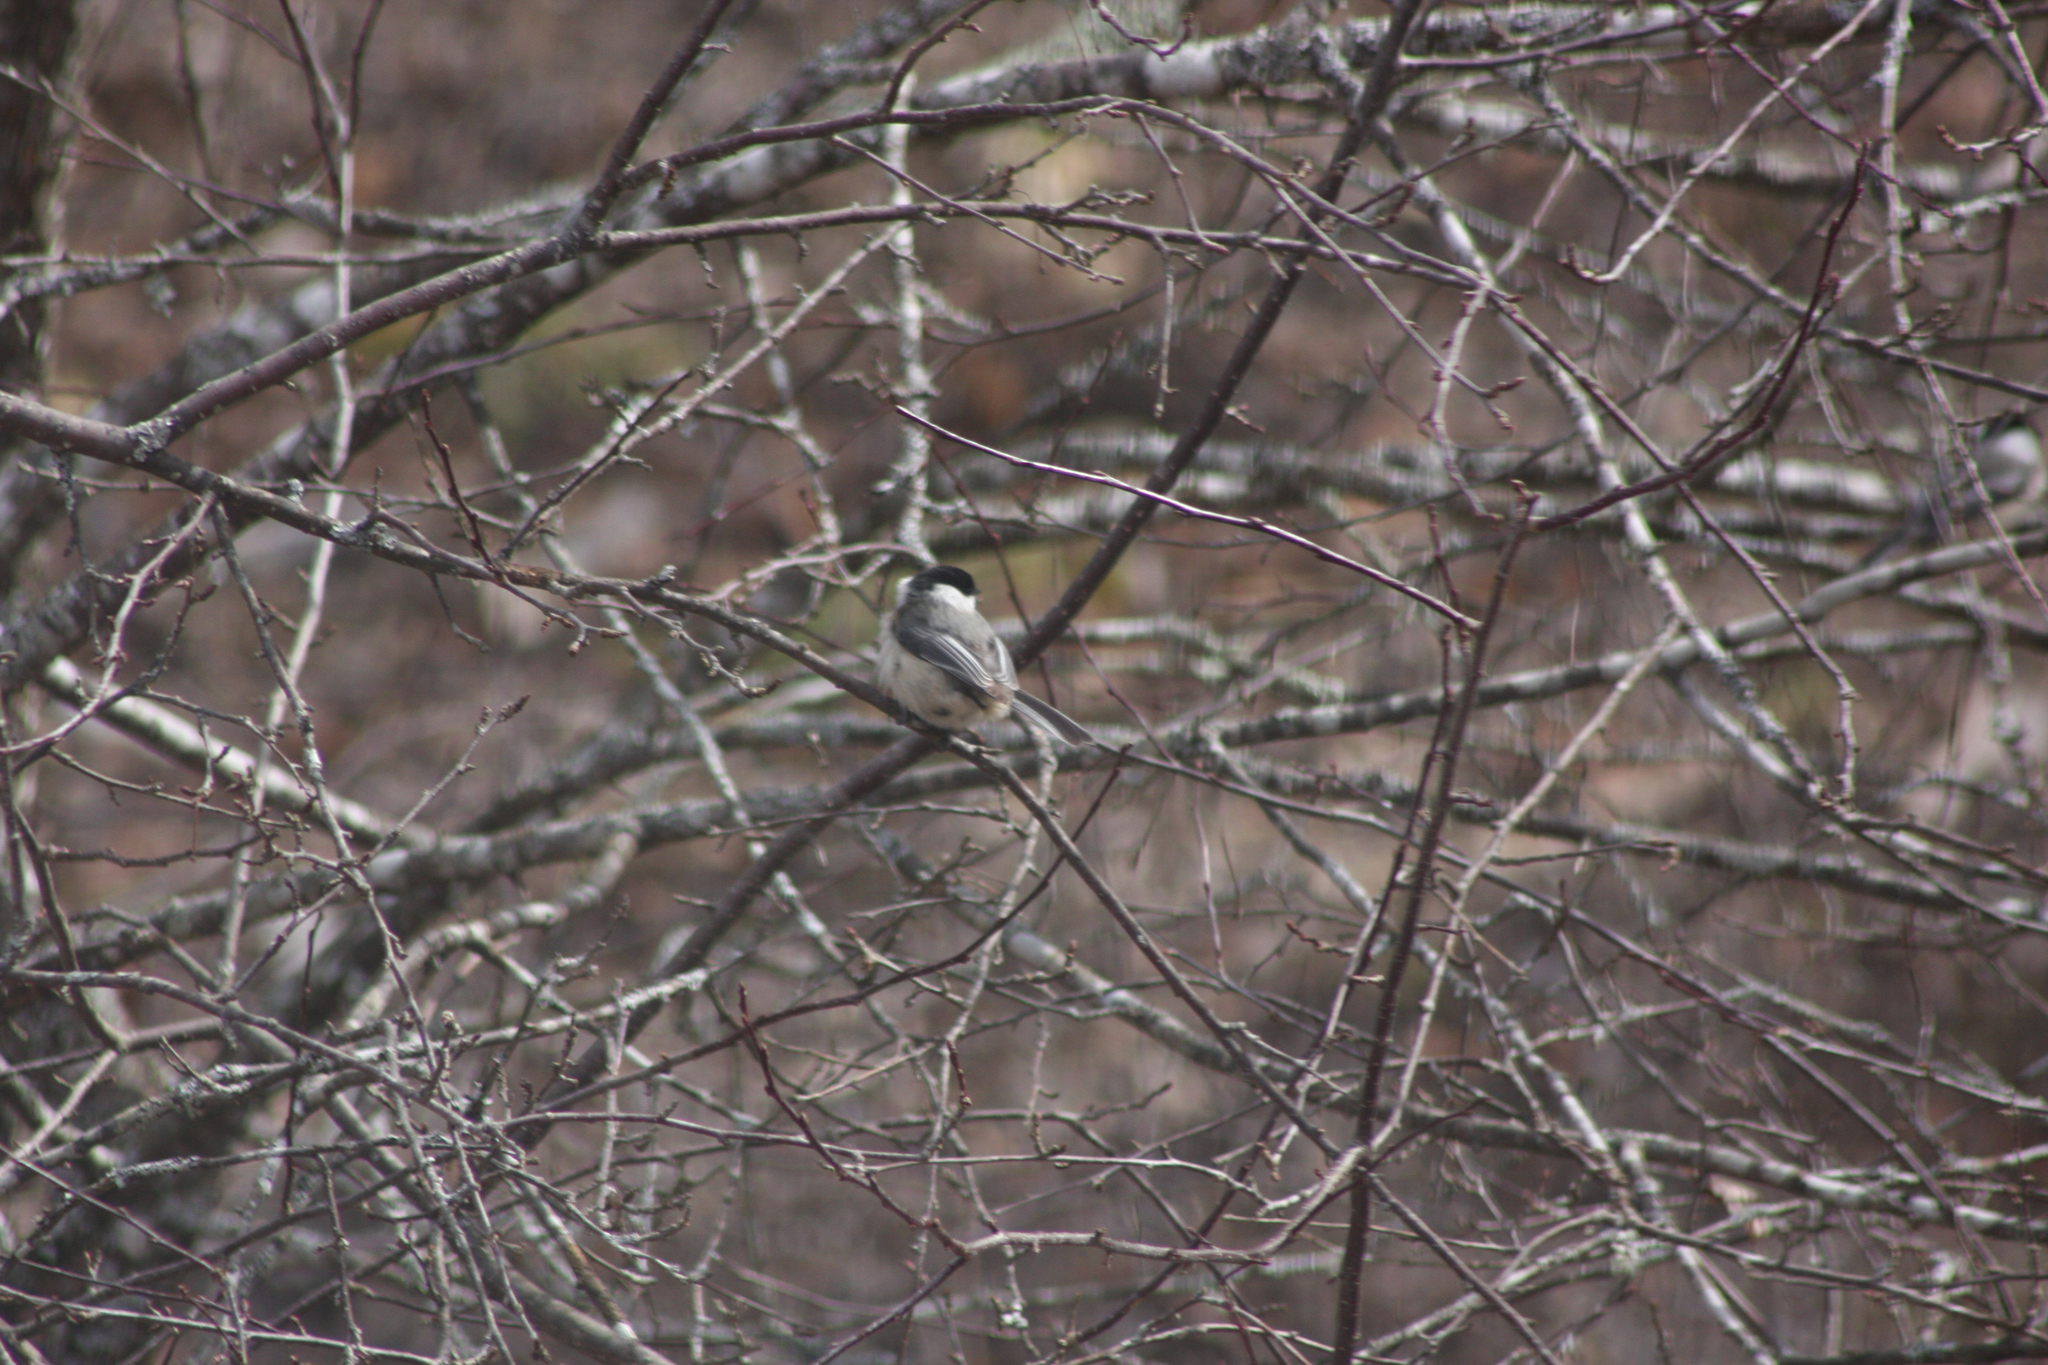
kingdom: Animalia
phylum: Chordata
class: Aves
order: Passeriformes
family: Paridae
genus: Poecile
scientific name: Poecile atricapillus
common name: Black-capped chickadee
